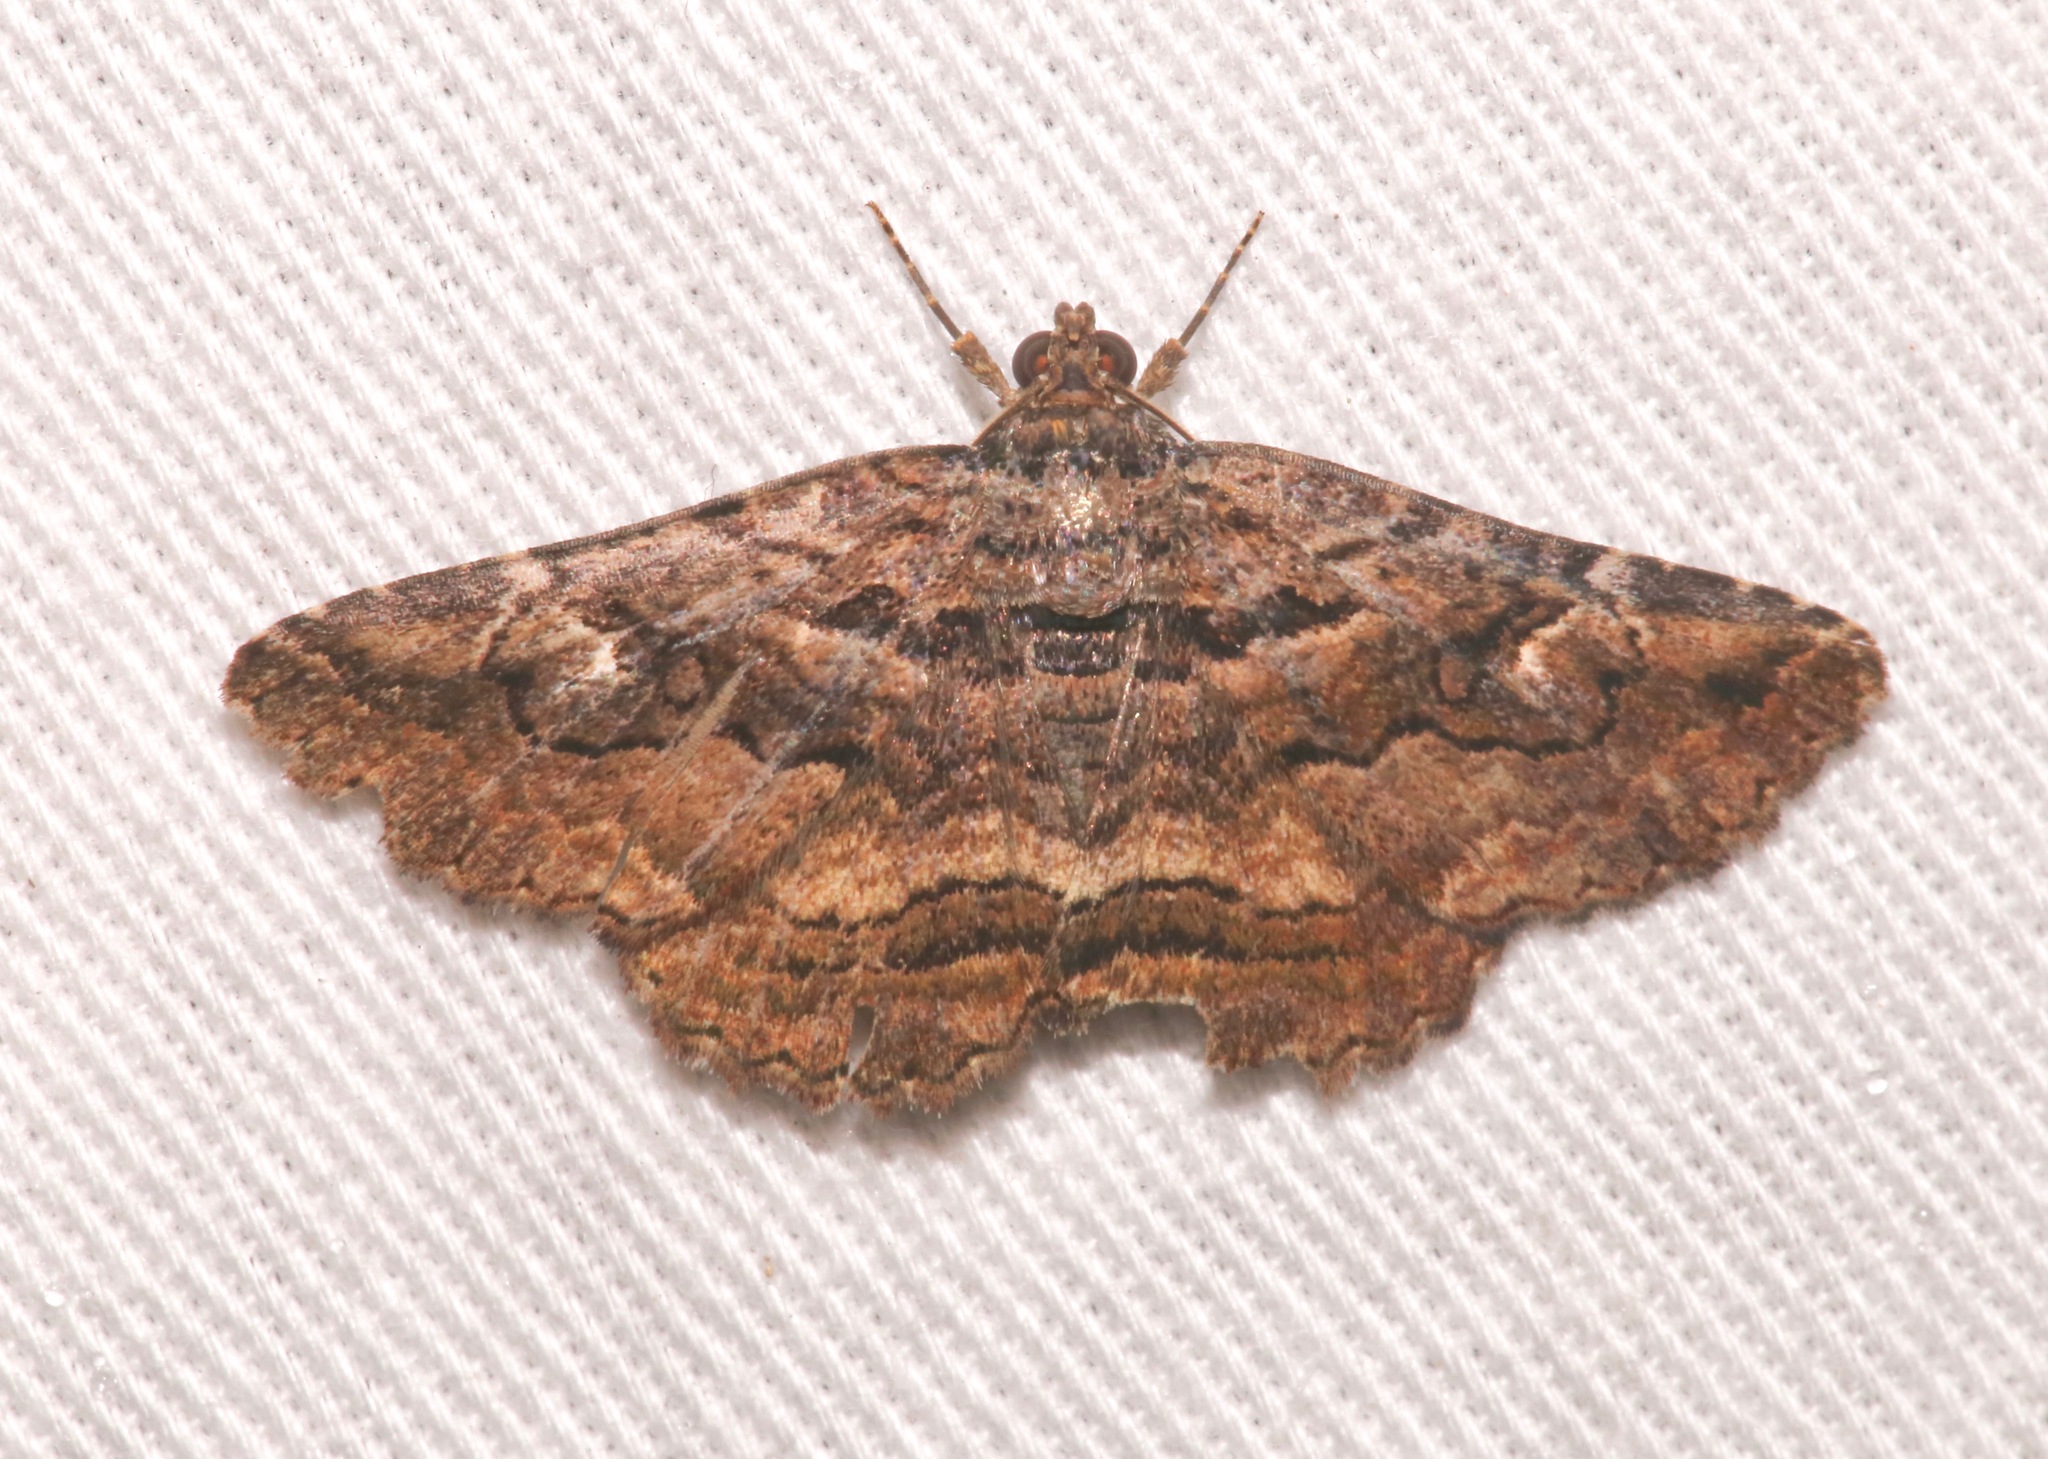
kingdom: Animalia
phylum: Arthropoda
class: Insecta
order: Lepidoptera
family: Erebidae
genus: Zaleops
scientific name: Zaleops umbrina
